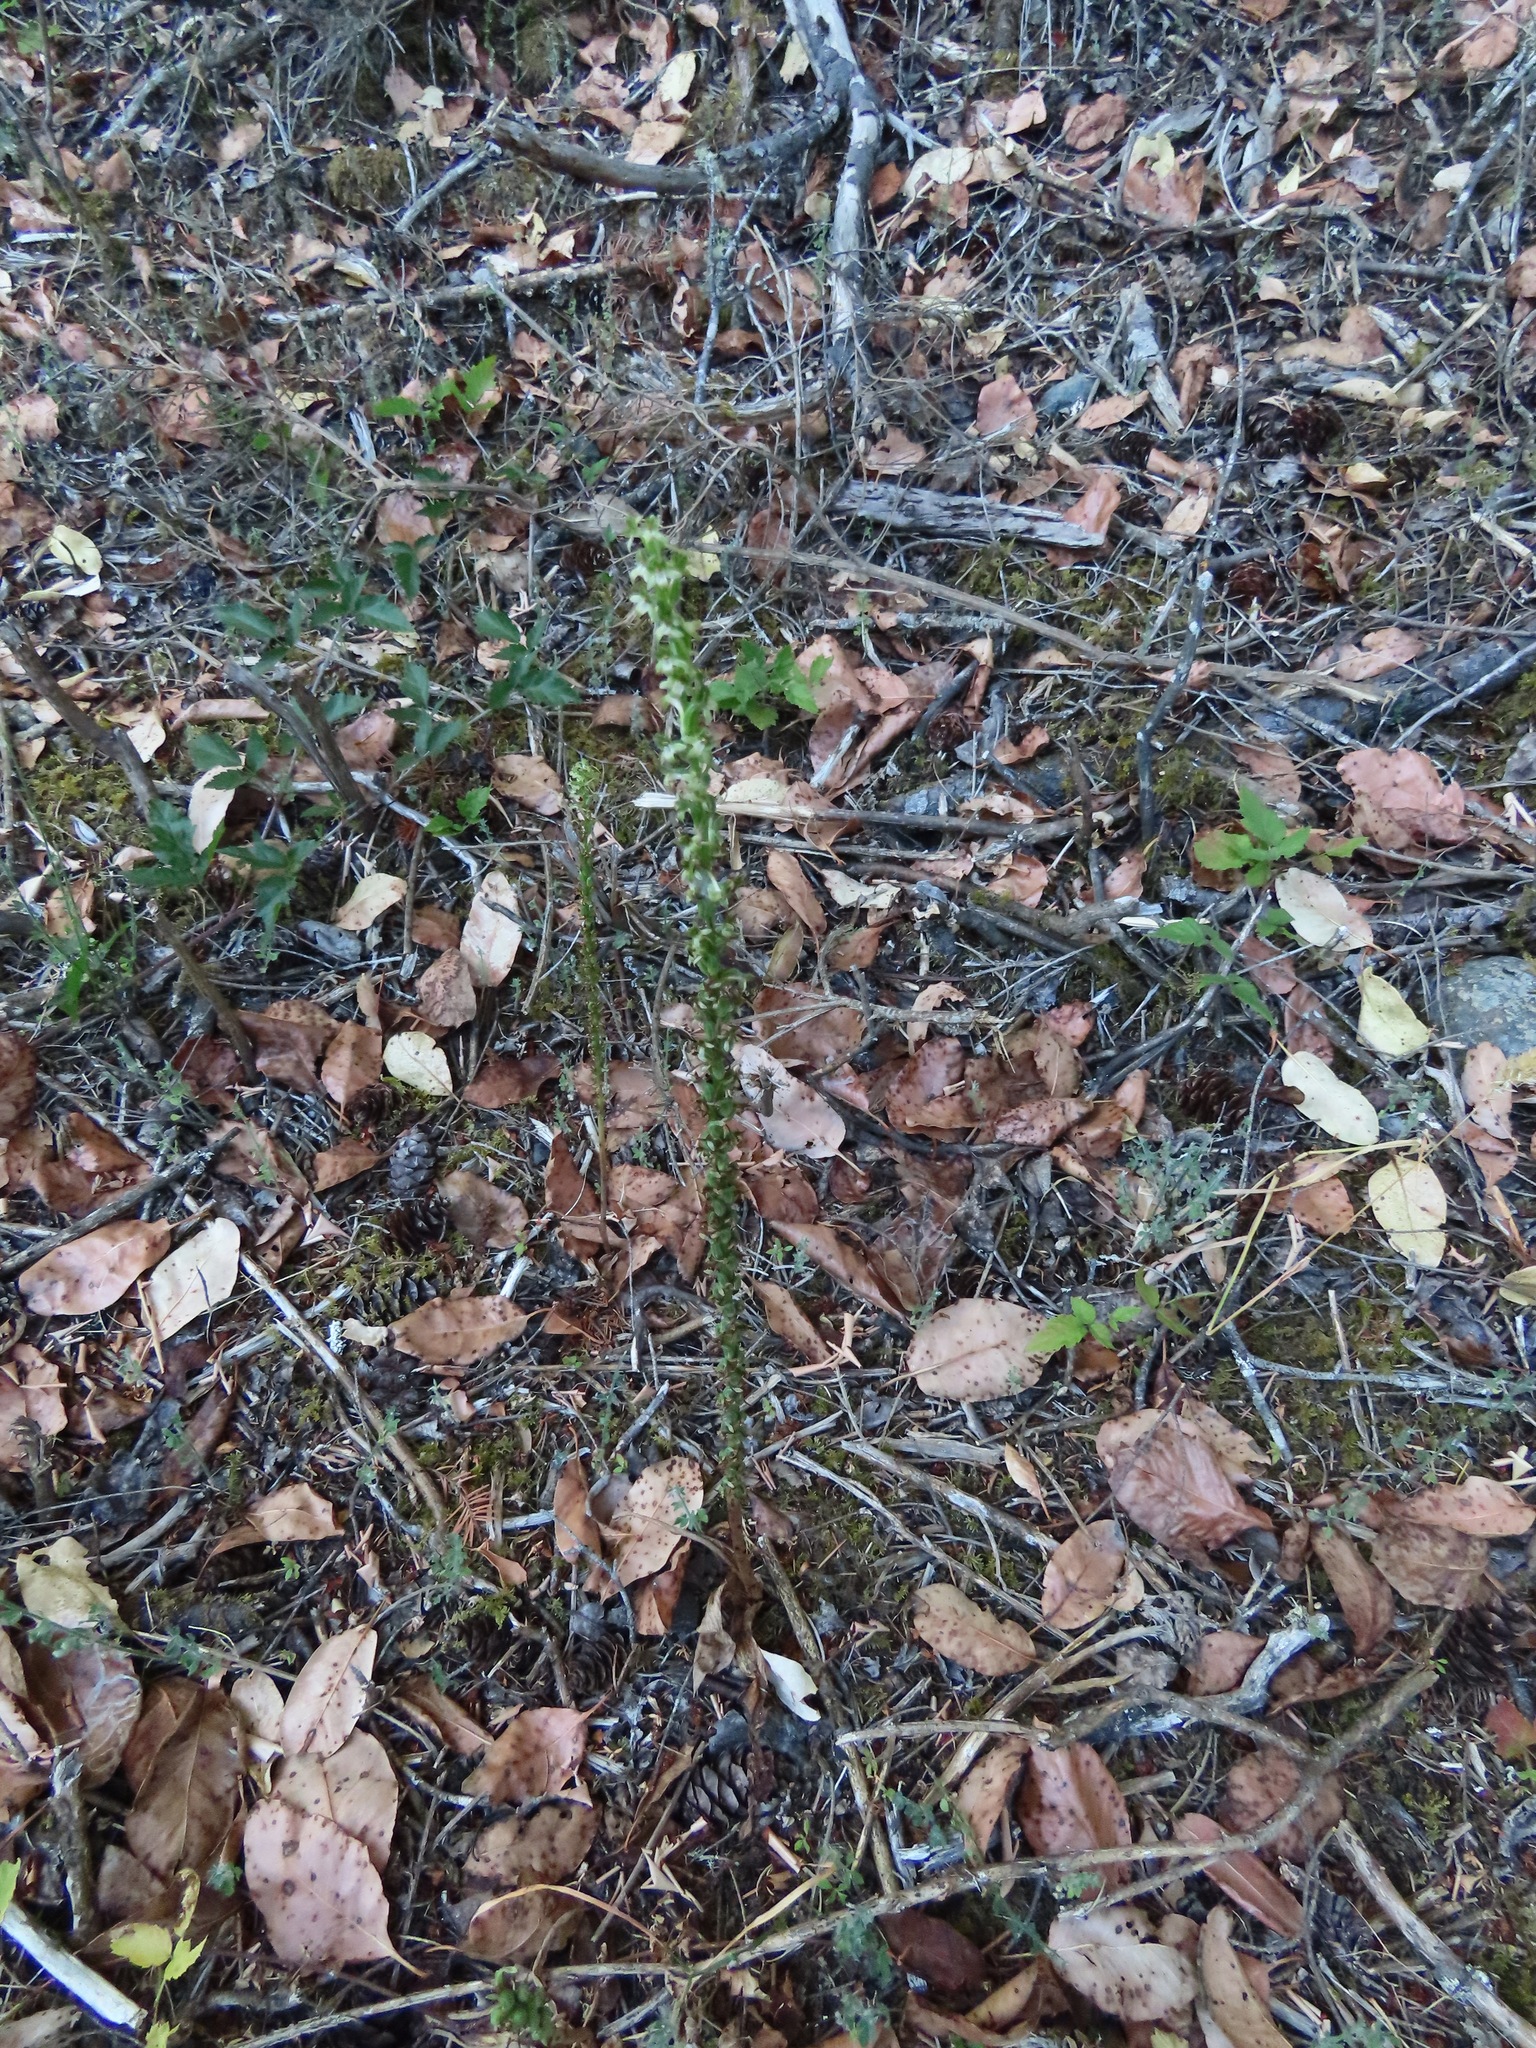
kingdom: Plantae
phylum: Tracheophyta
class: Liliopsida
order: Asparagales
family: Orchidaceae
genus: Platanthera
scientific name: Platanthera elongata
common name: Dense-flowered rein orchid
